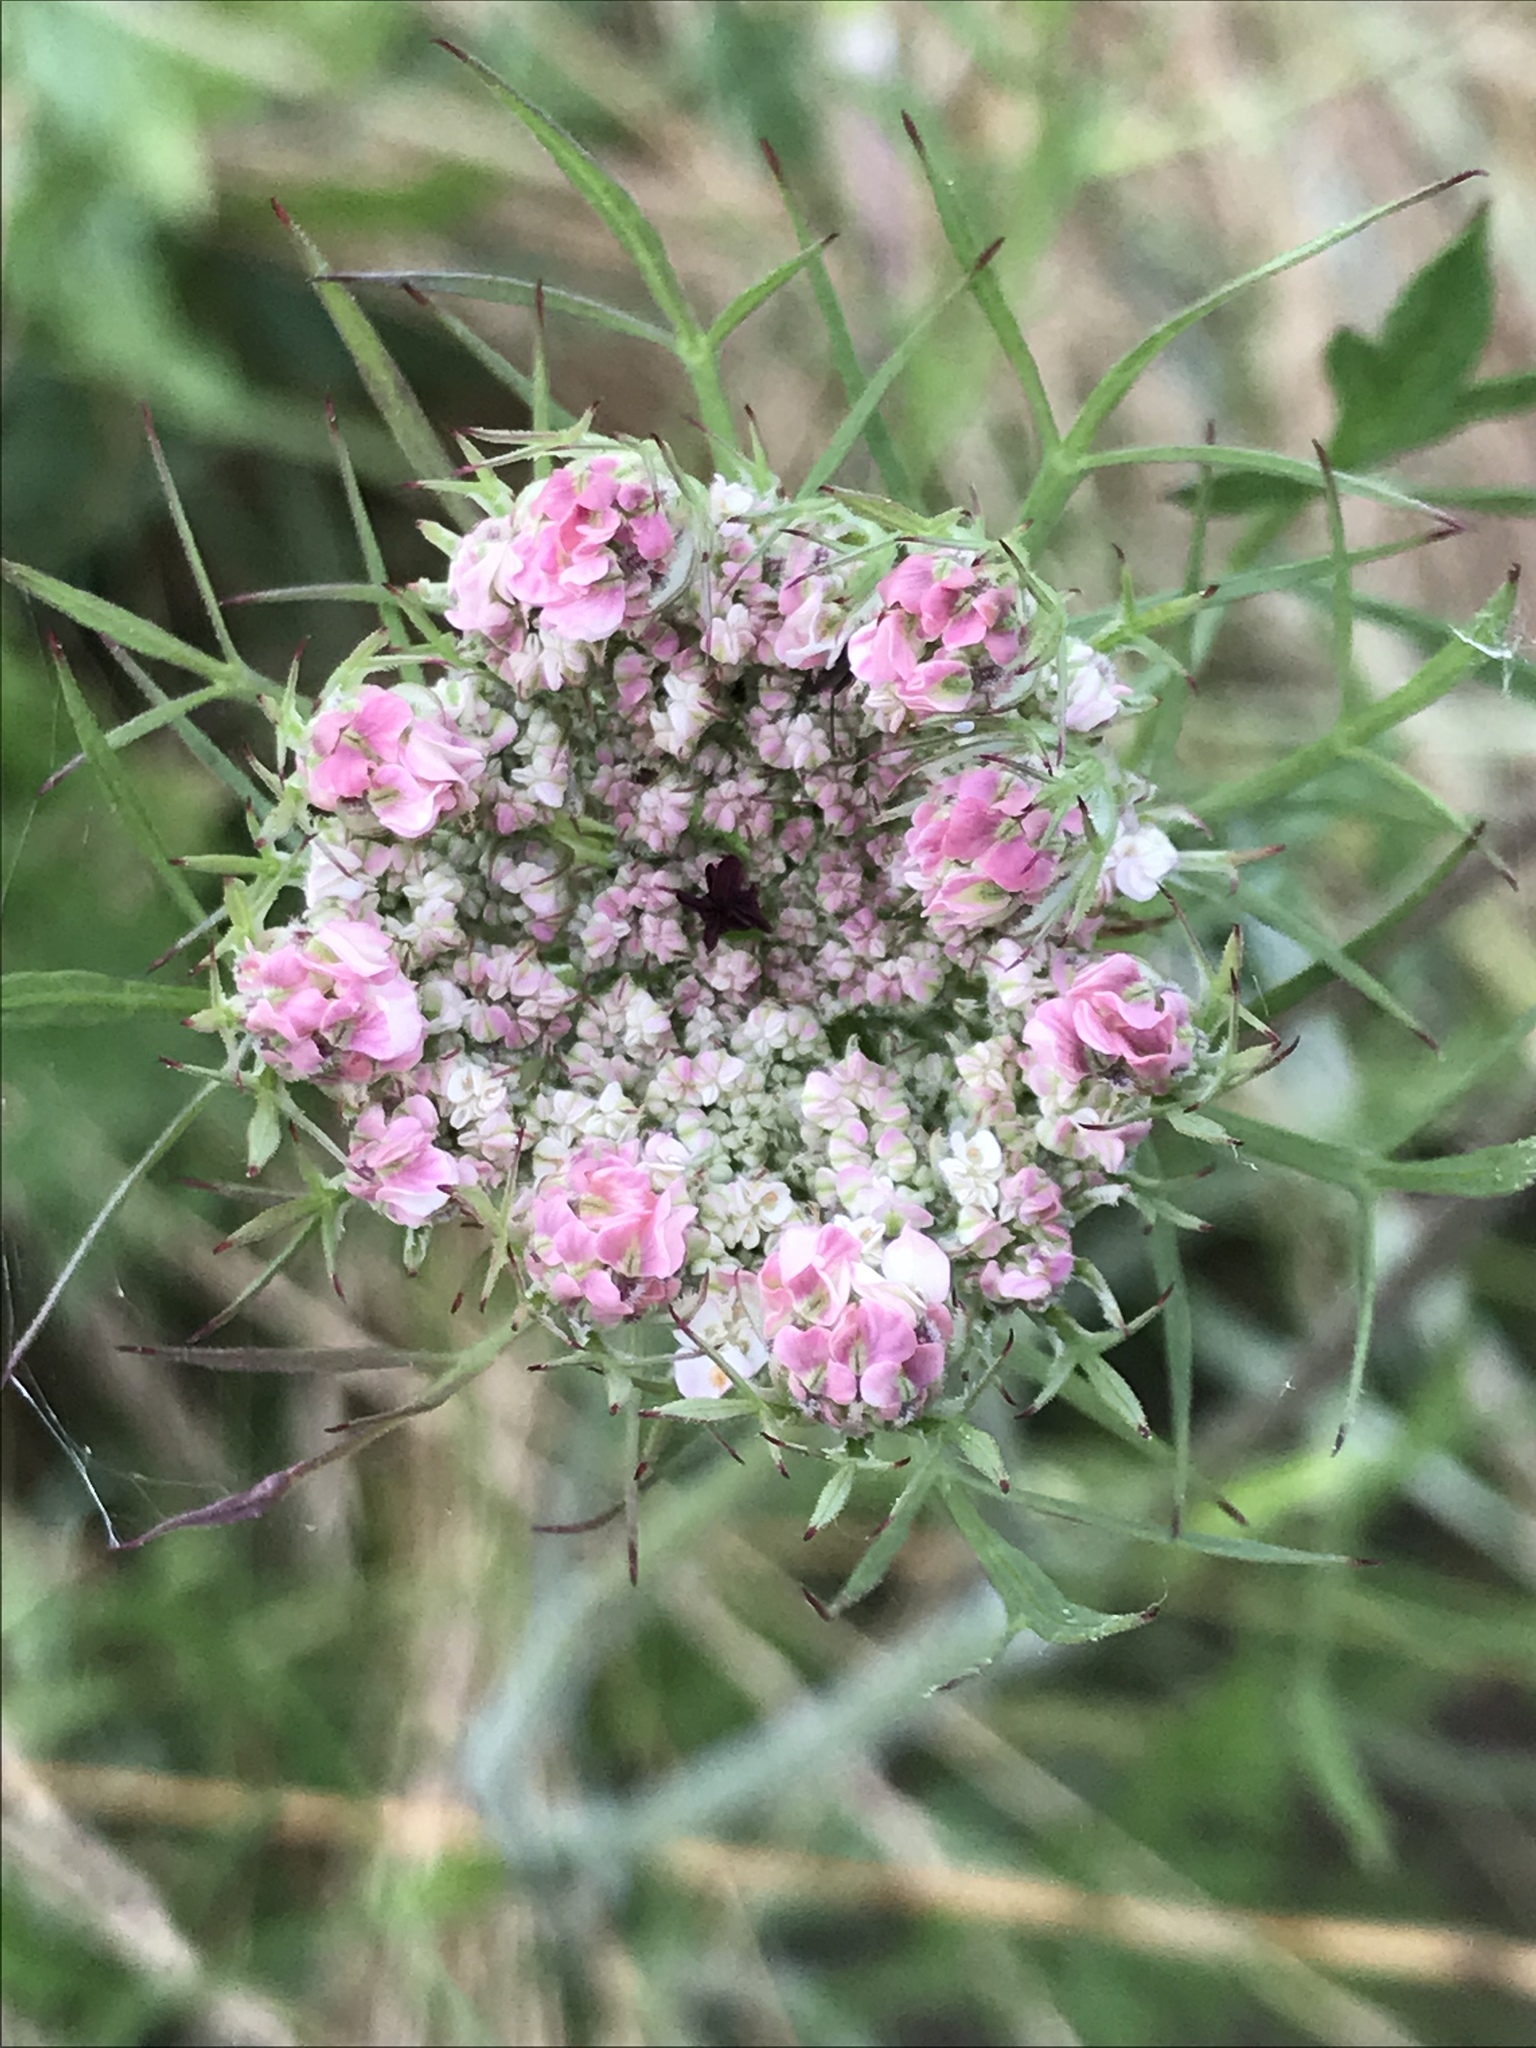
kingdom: Plantae
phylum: Tracheophyta
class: Magnoliopsida
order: Apiales
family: Apiaceae
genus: Daucus
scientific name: Daucus carota
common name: Wild carrot
